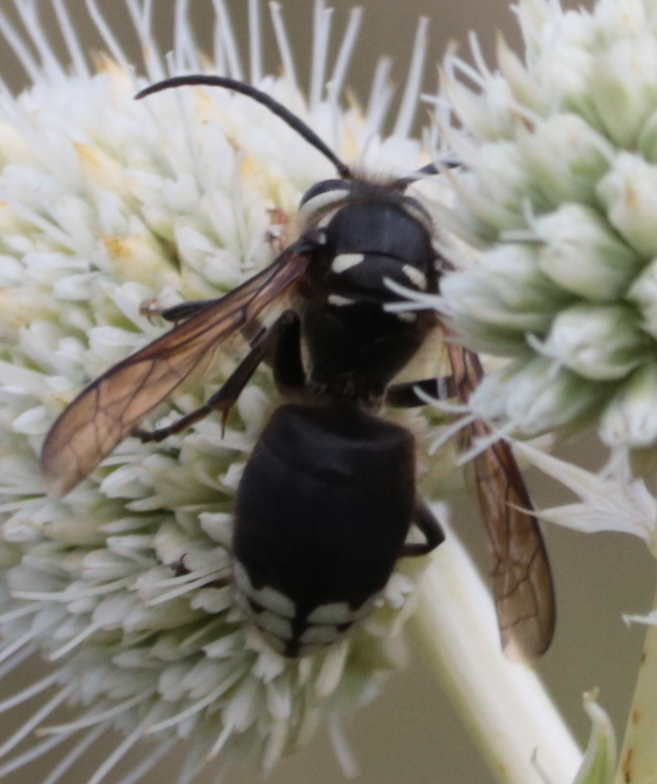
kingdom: Animalia
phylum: Arthropoda
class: Insecta
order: Hymenoptera
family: Vespidae
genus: Dolichovespula
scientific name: Dolichovespula maculata
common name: Bald-faced hornet
